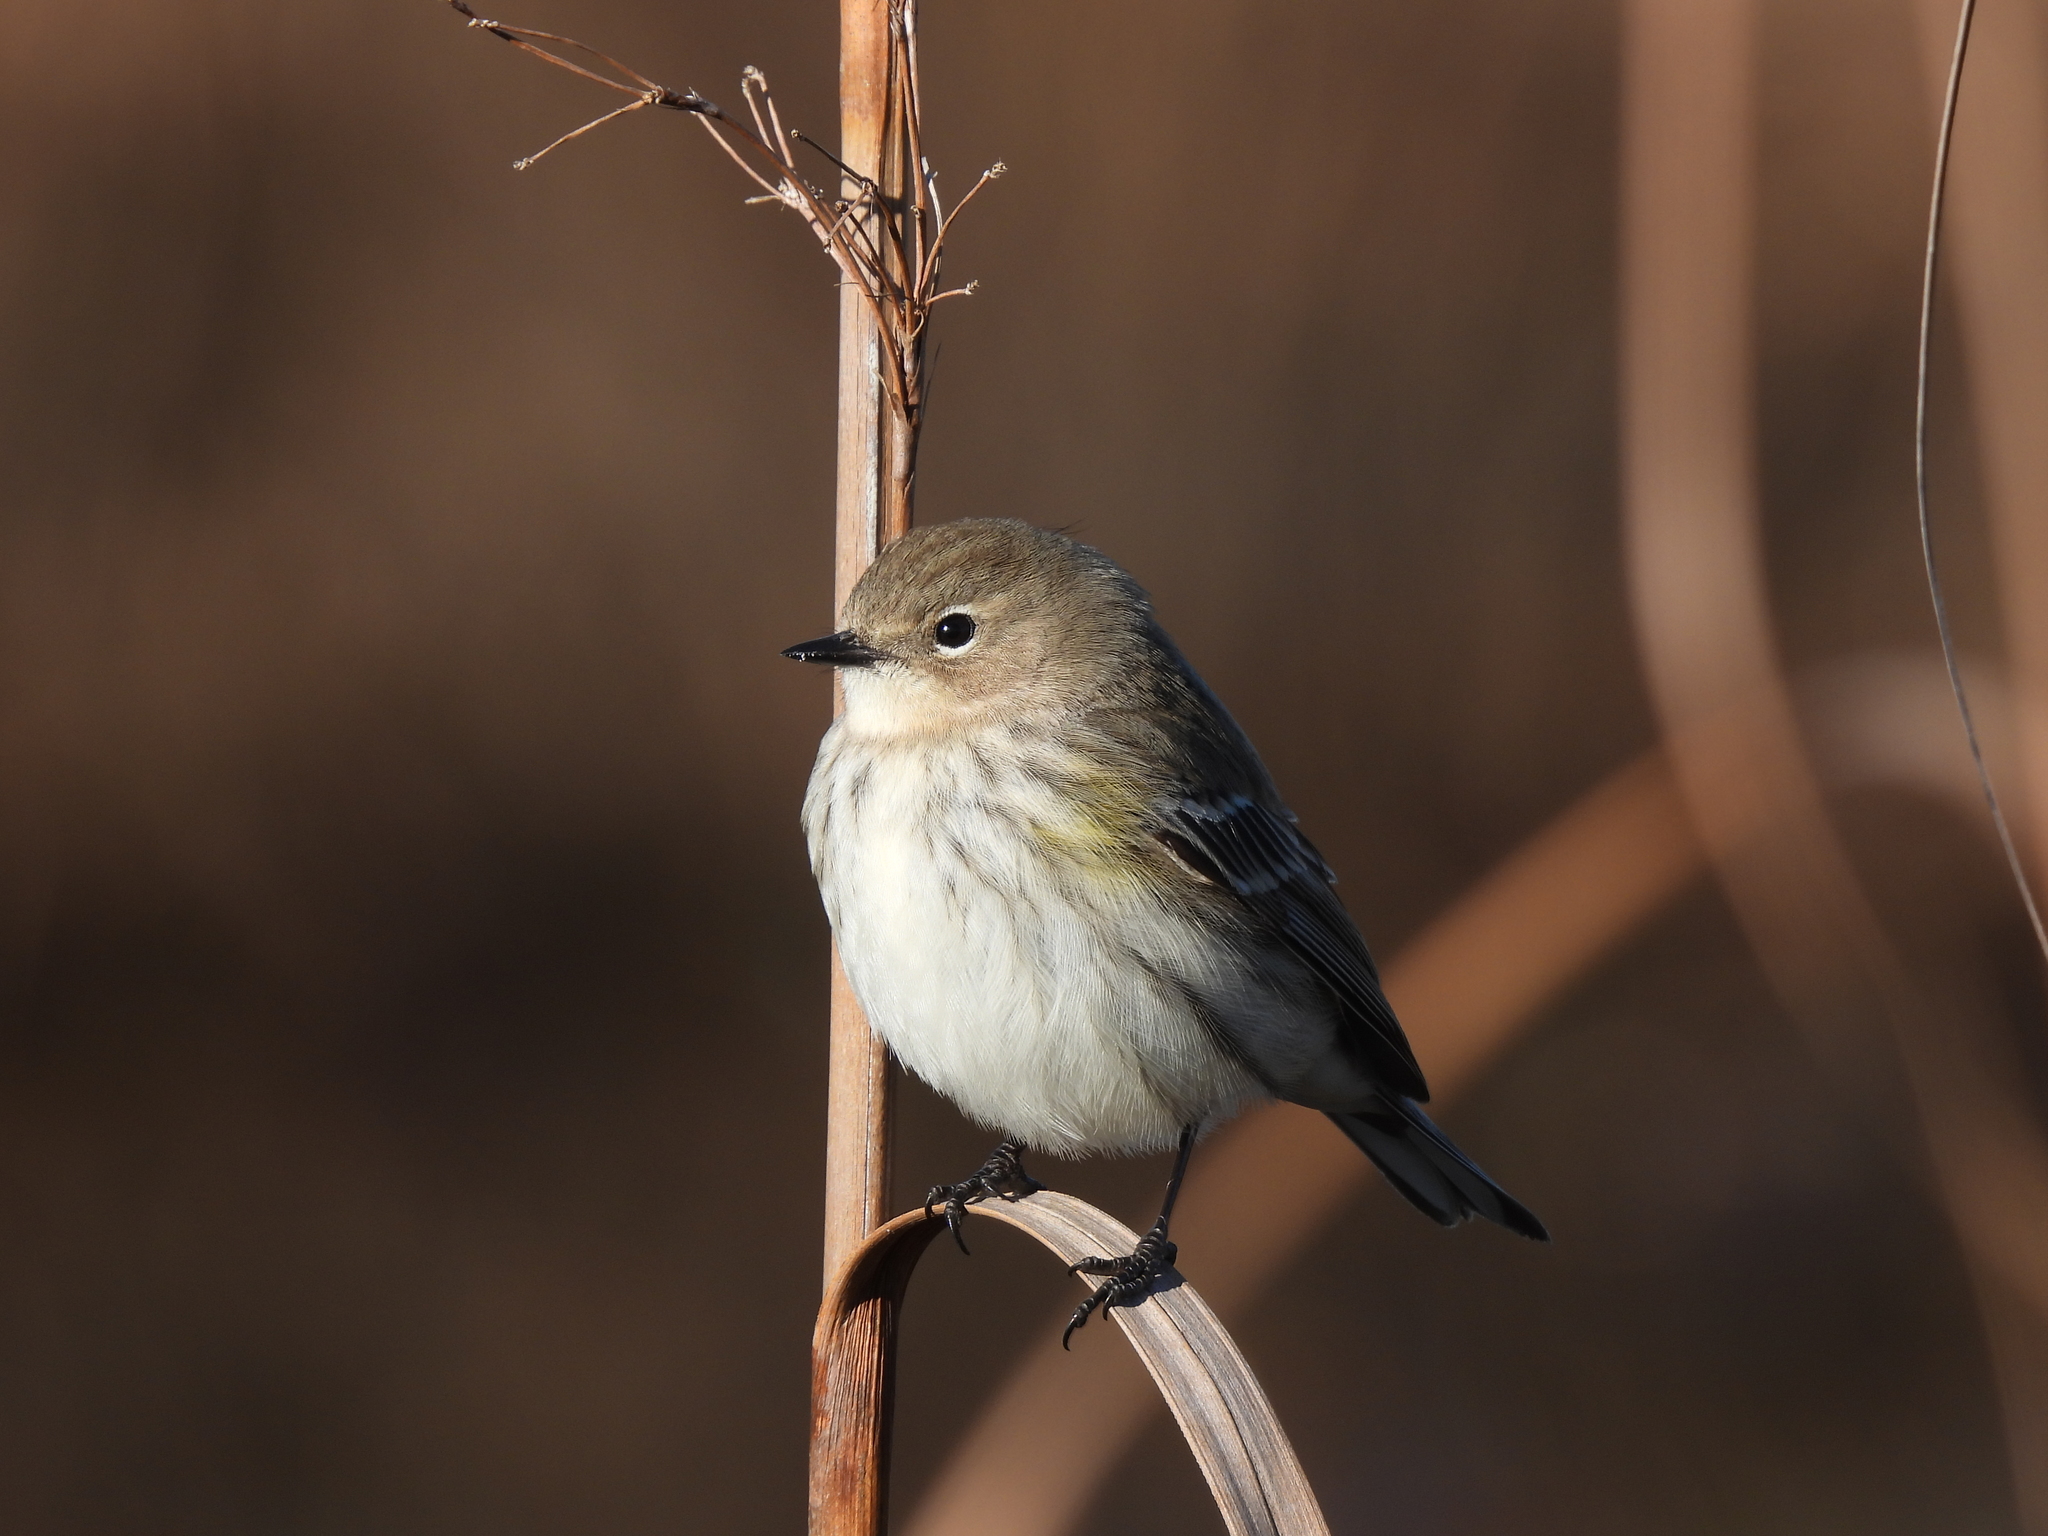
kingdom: Animalia
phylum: Chordata
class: Aves
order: Passeriformes
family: Parulidae
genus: Setophaga
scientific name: Setophaga coronata
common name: Myrtle warbler
